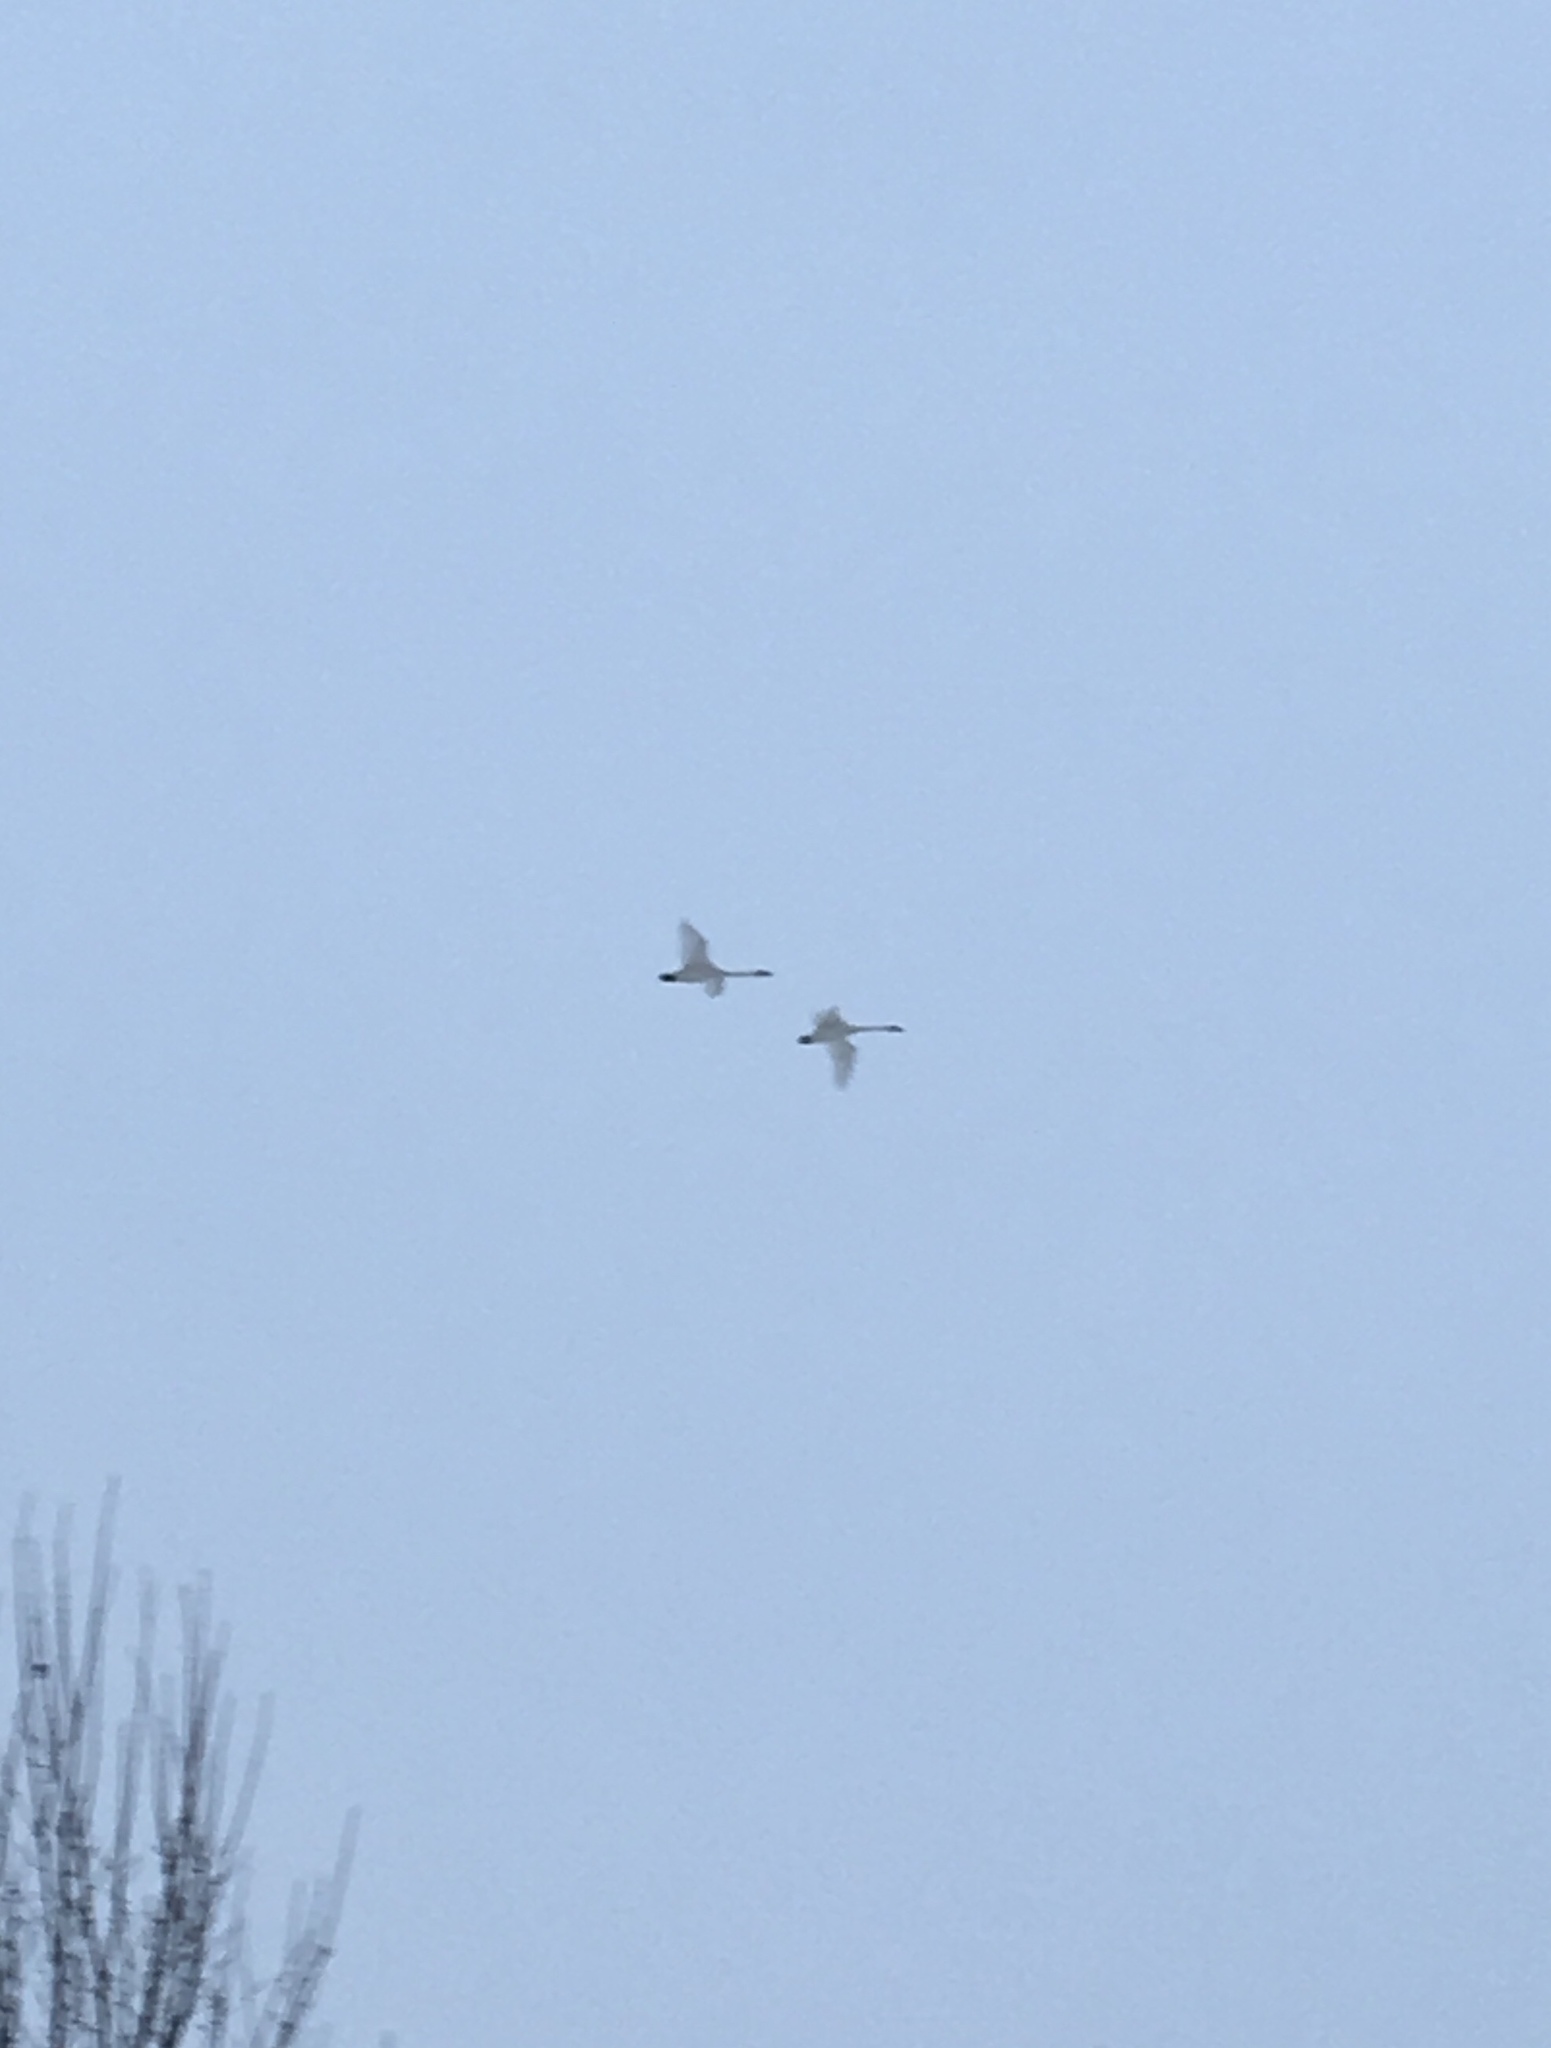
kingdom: Animalia
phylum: Chordata
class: Aves
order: Anseriformes
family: Anatidae
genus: Cygnus
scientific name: Cygnus buccinator
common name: Trumpeter swan
